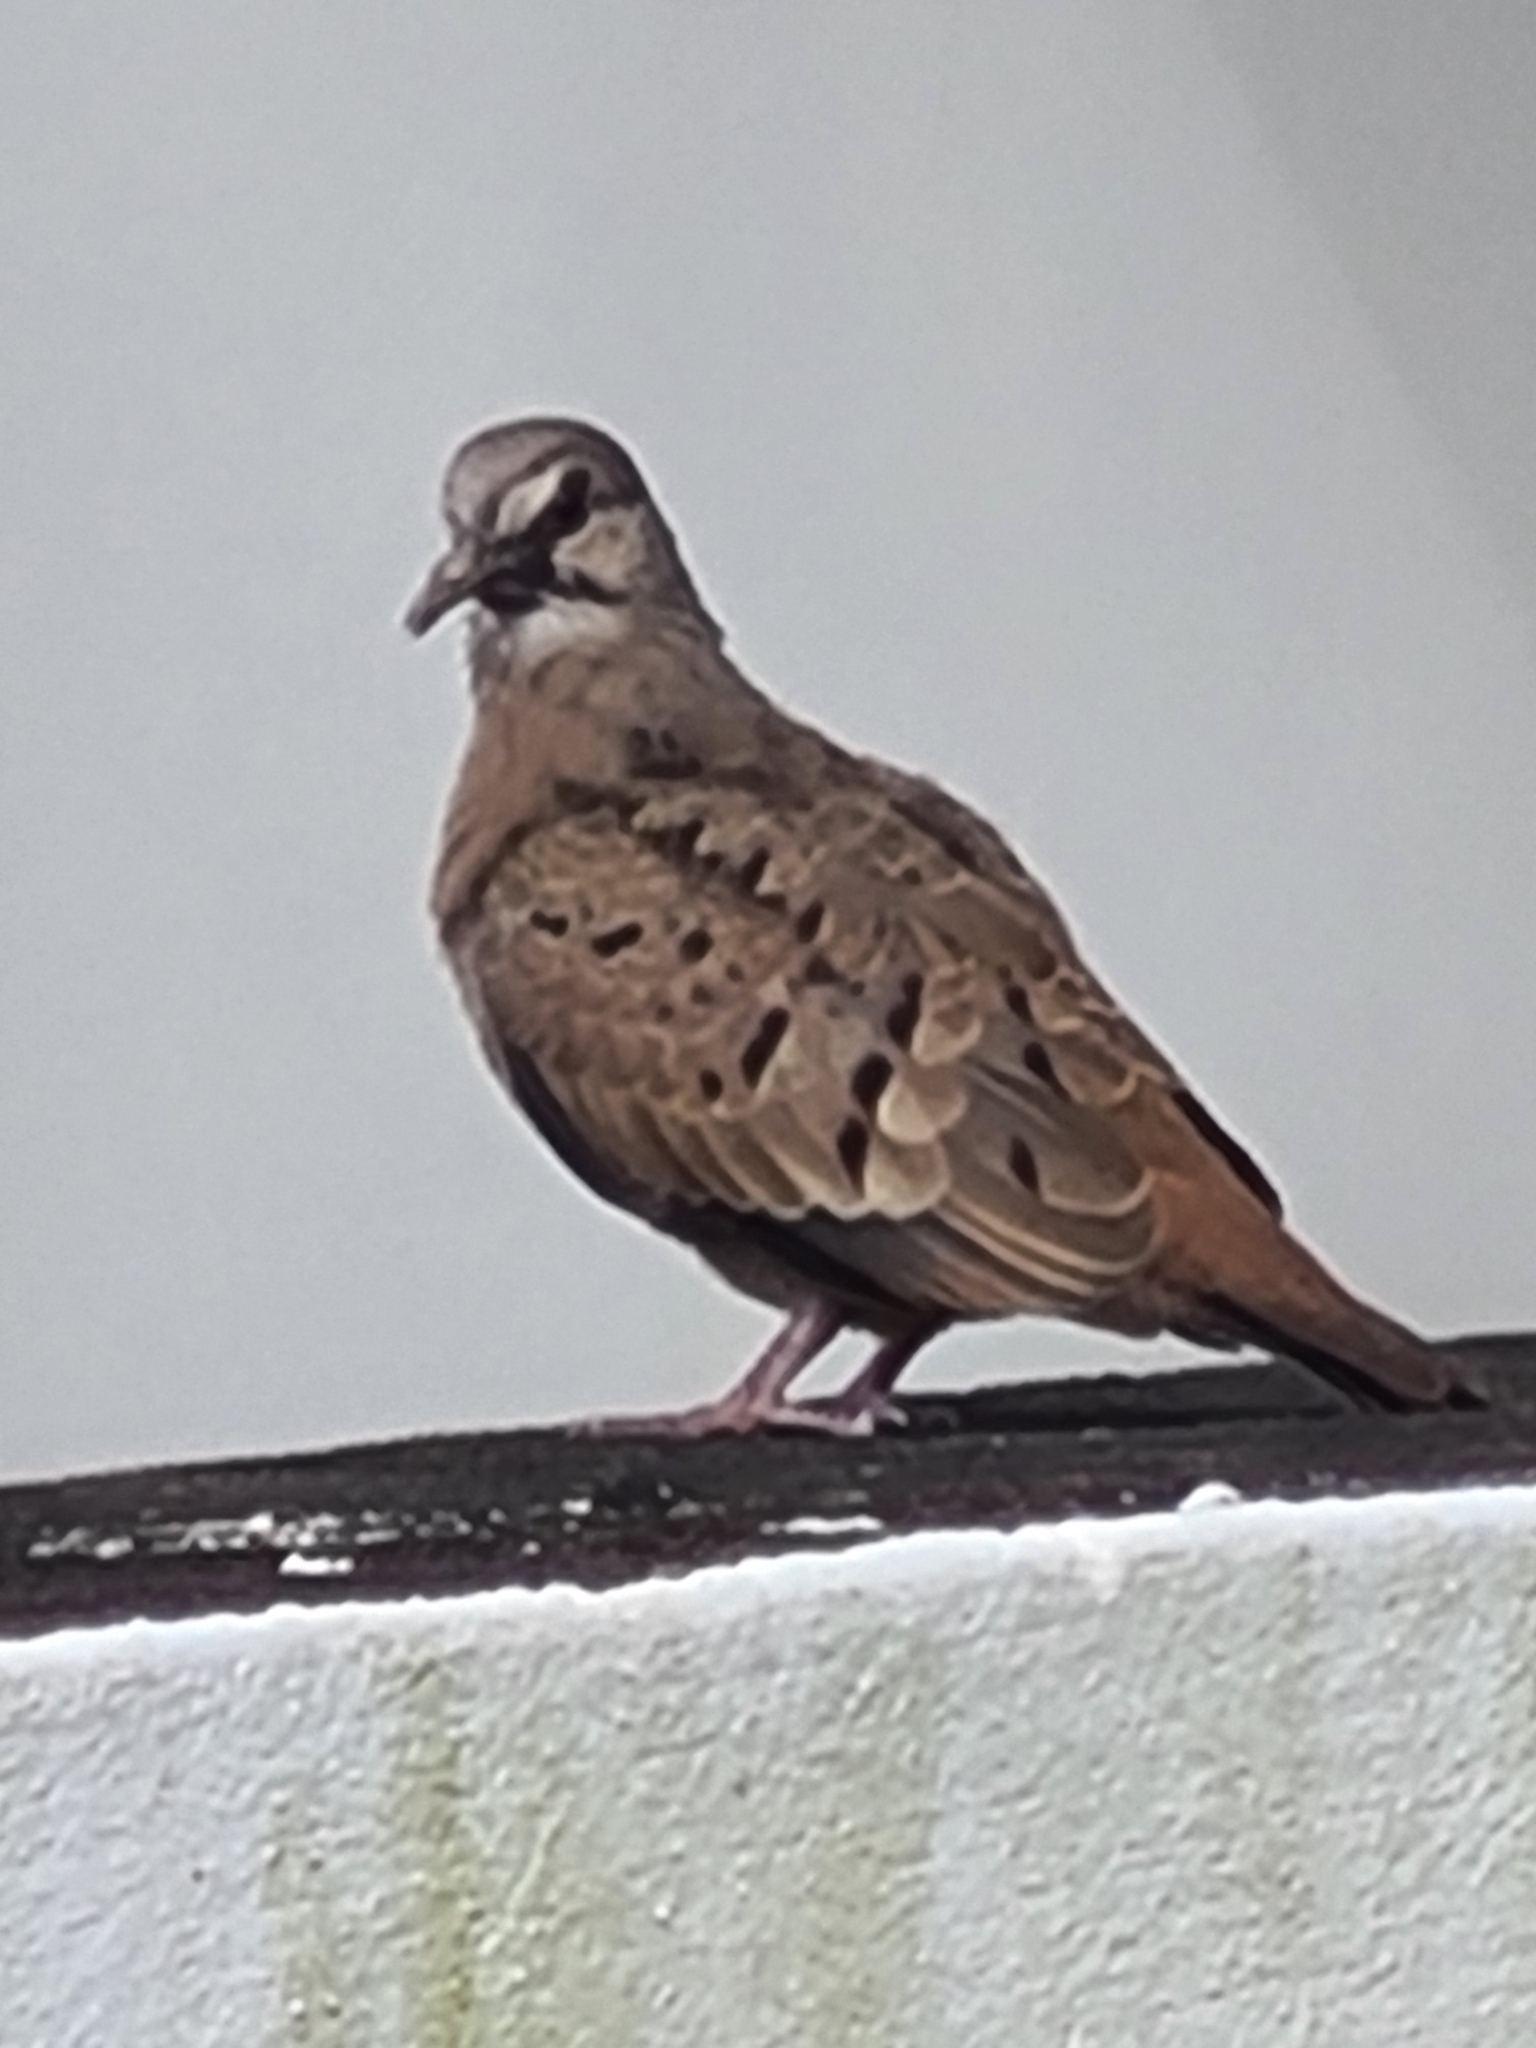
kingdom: Animalia
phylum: Chordata
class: Aves
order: Columbiformes
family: Columbidae
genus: Columbina
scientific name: Columbina talpacoti
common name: Ruddy ground dove
